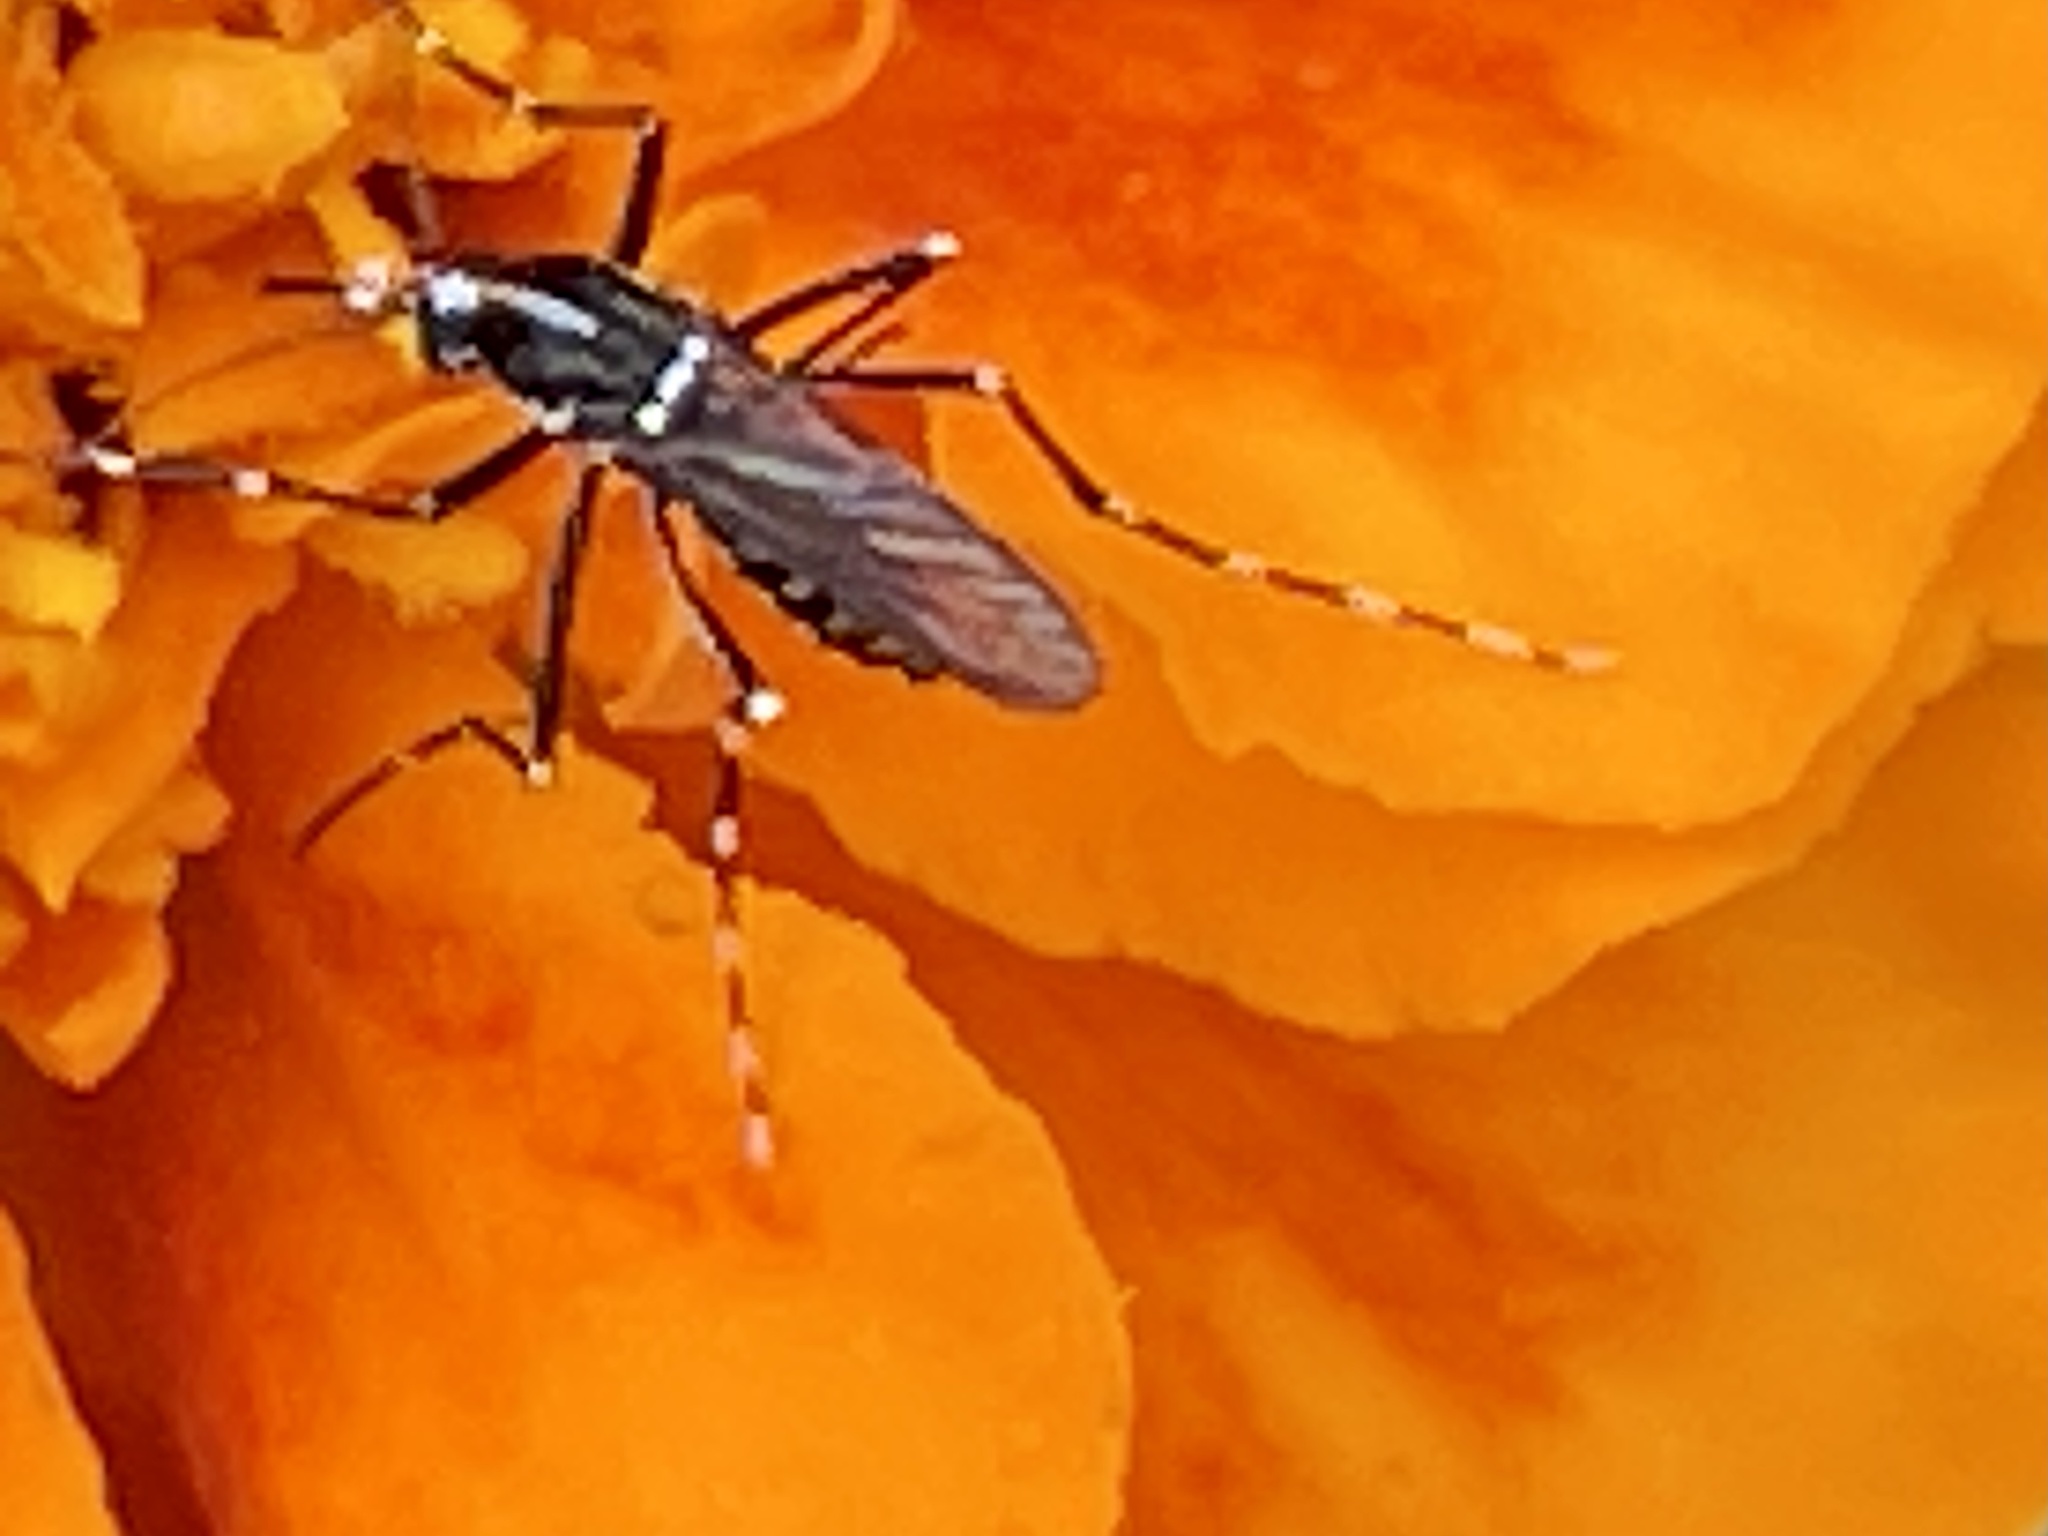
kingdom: Animalia
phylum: Arthropoda
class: Insecta
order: Diptera
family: Culicidae
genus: Aedes
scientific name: Aedes albopictus
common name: Tiger mosquito
